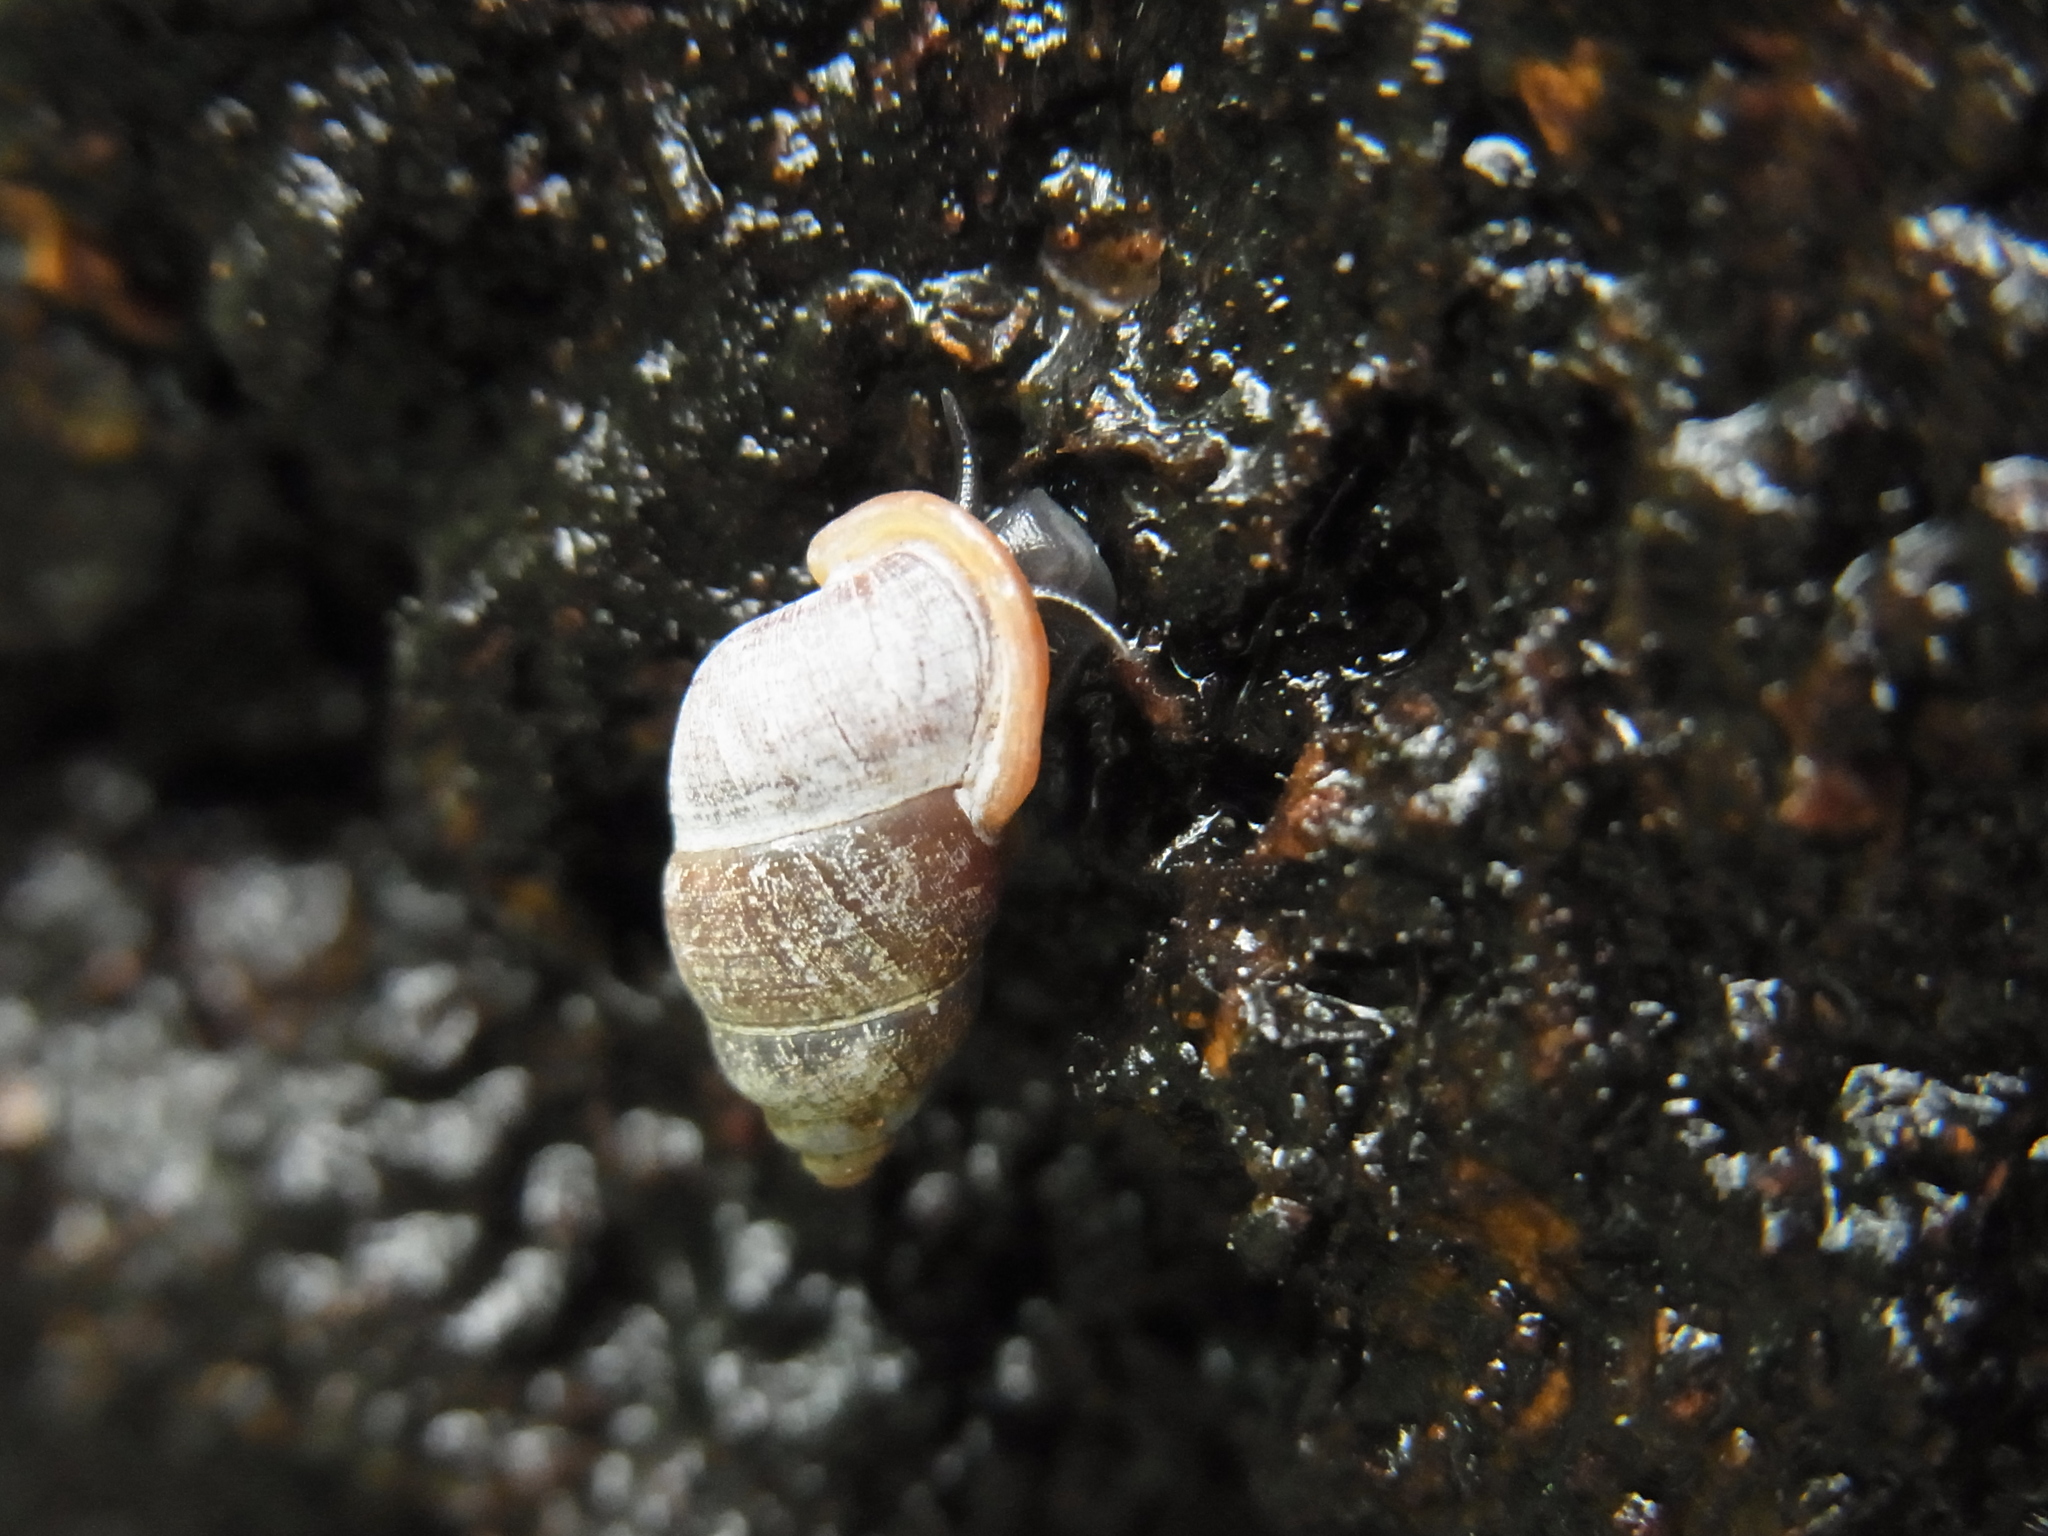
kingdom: Animalia
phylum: Mollusca
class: Gastropoda
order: Architaenioglossa
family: Pupinidae
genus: Pupinella
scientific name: Pupinella rufa
